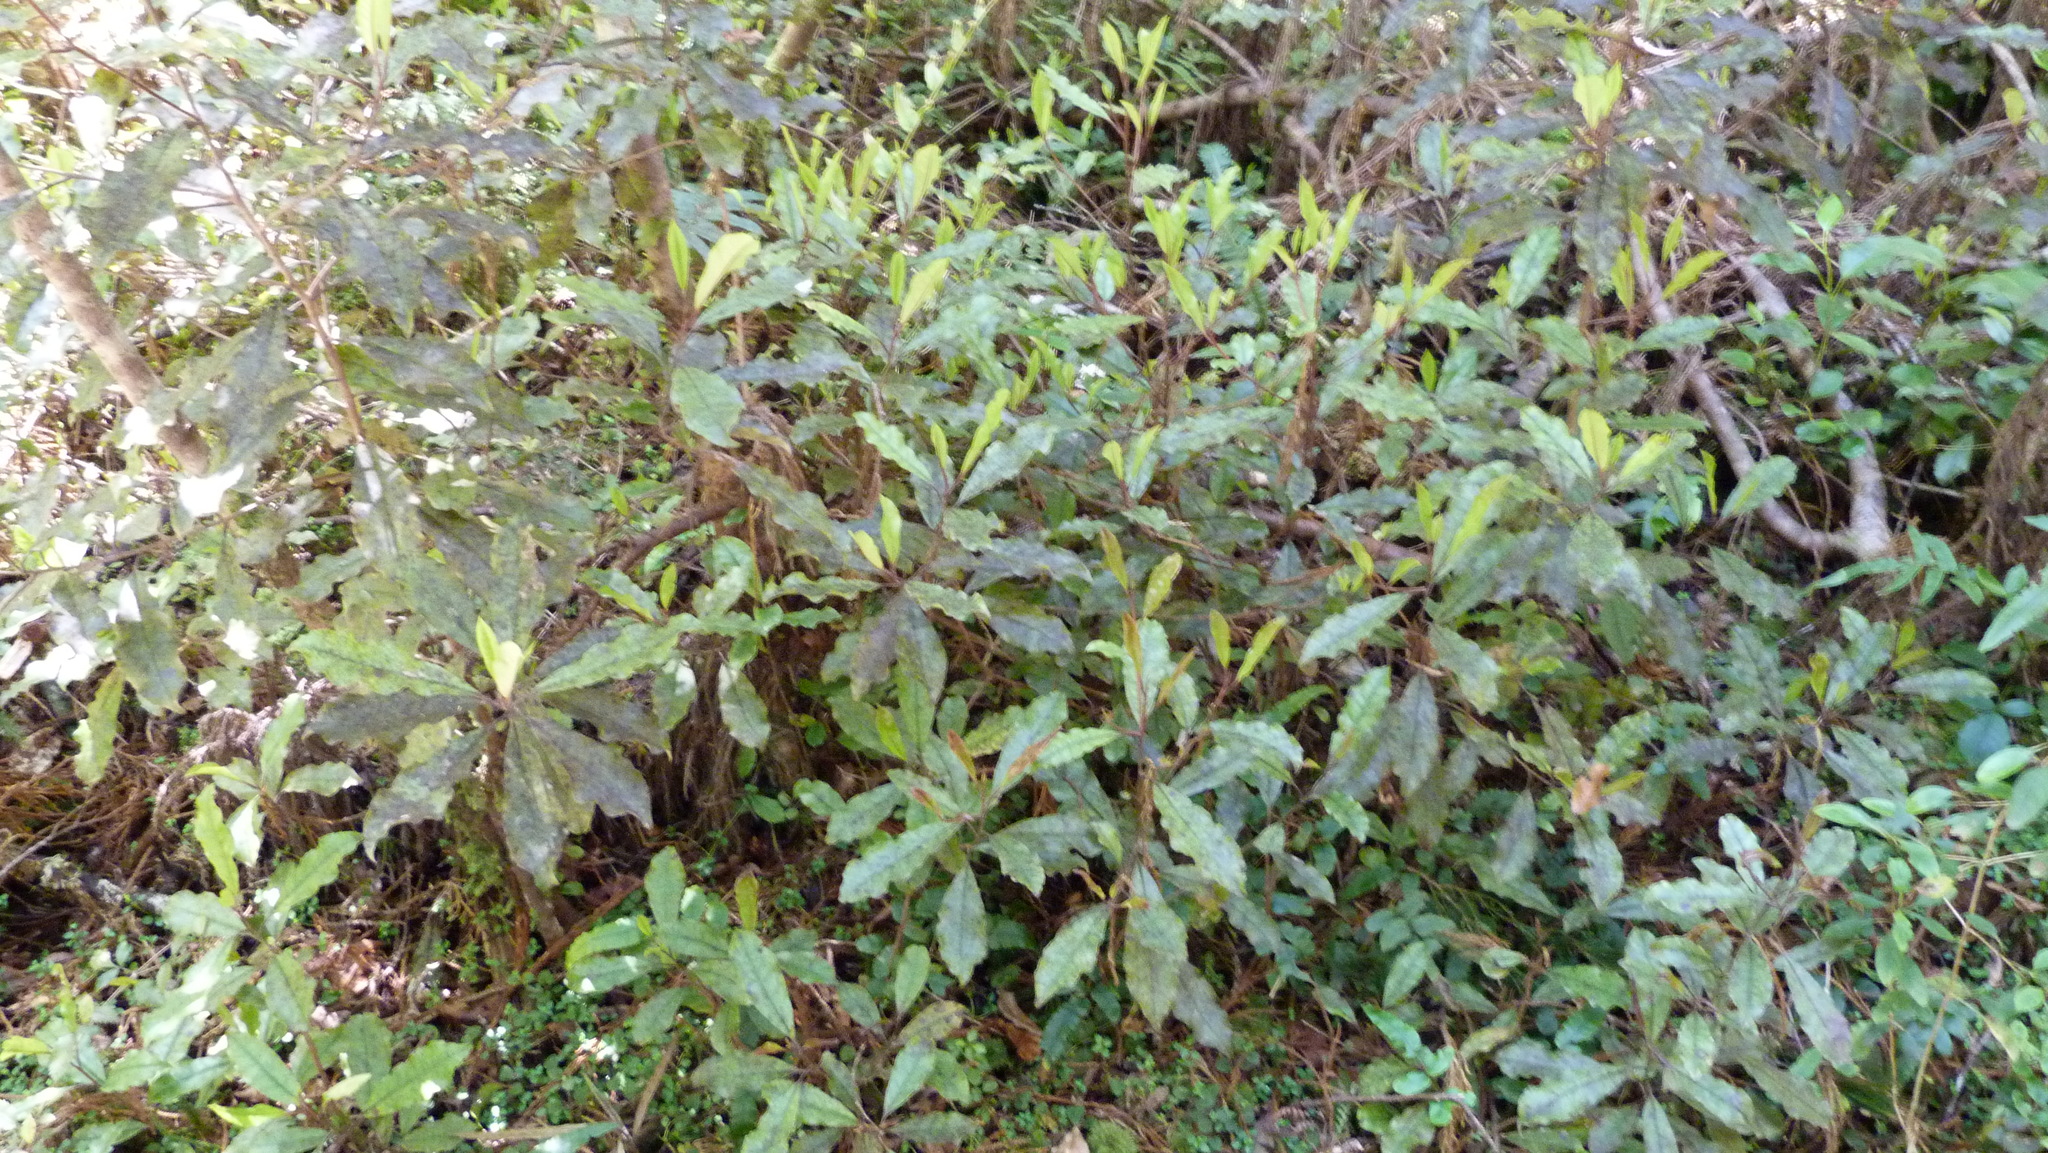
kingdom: Plantae
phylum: Tracheophyta
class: Magnoliopsida
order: Paracryphiales
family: Paracryphiaceae
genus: Quintinia
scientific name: Quintinia serrata
